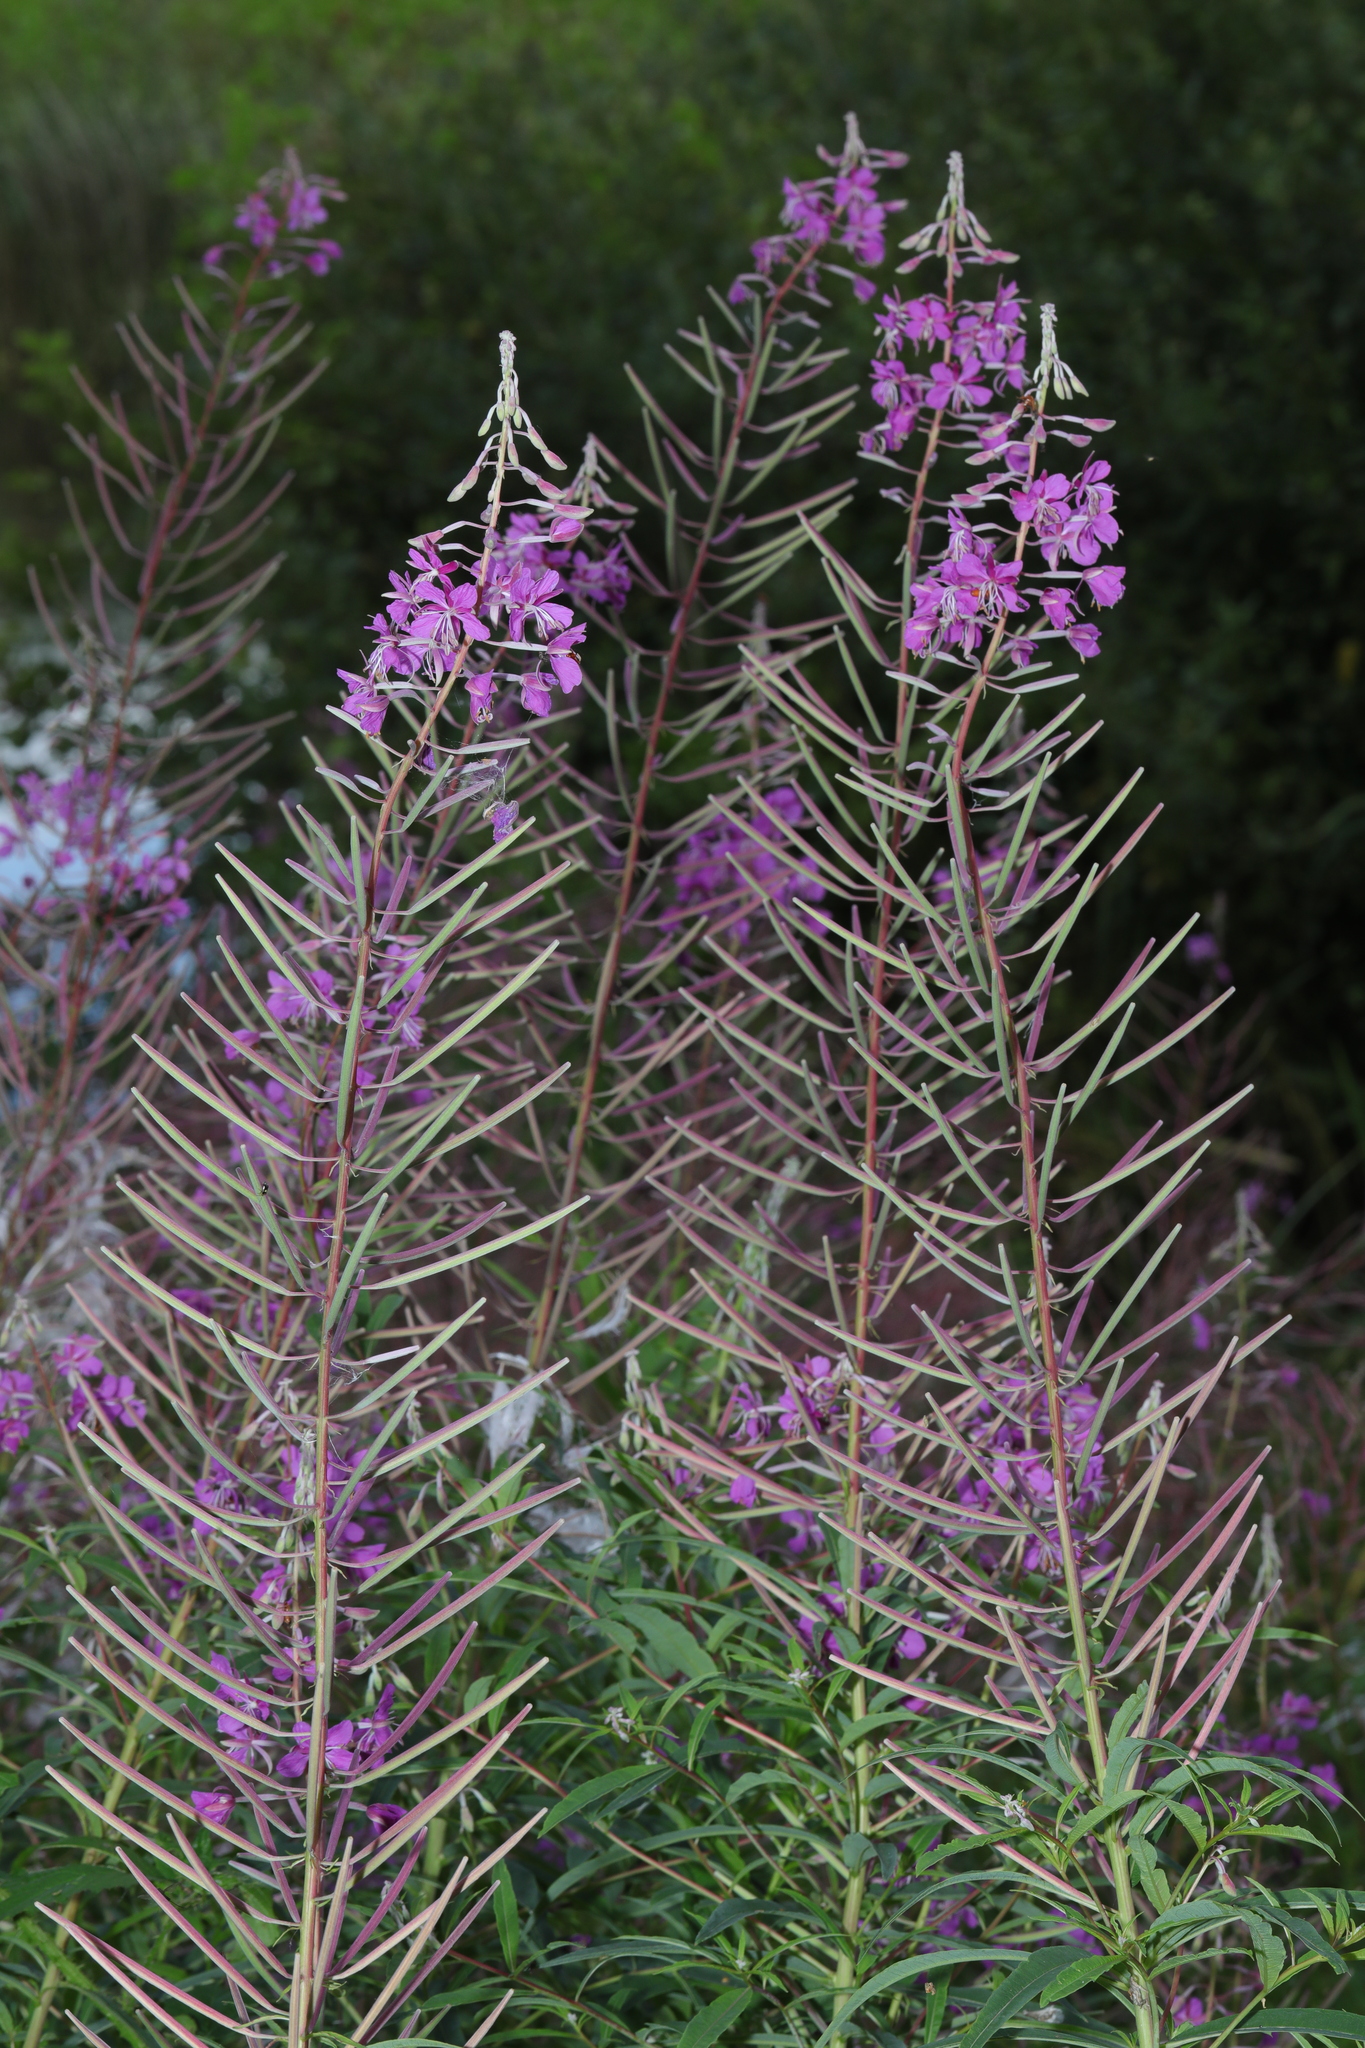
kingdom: Plantae
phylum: Tracheophyta
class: Magnoliopsida
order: Myrtales
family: Onagraceae
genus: Chamaenerion
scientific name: Chamaenerion angustifolium
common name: Fireweed
